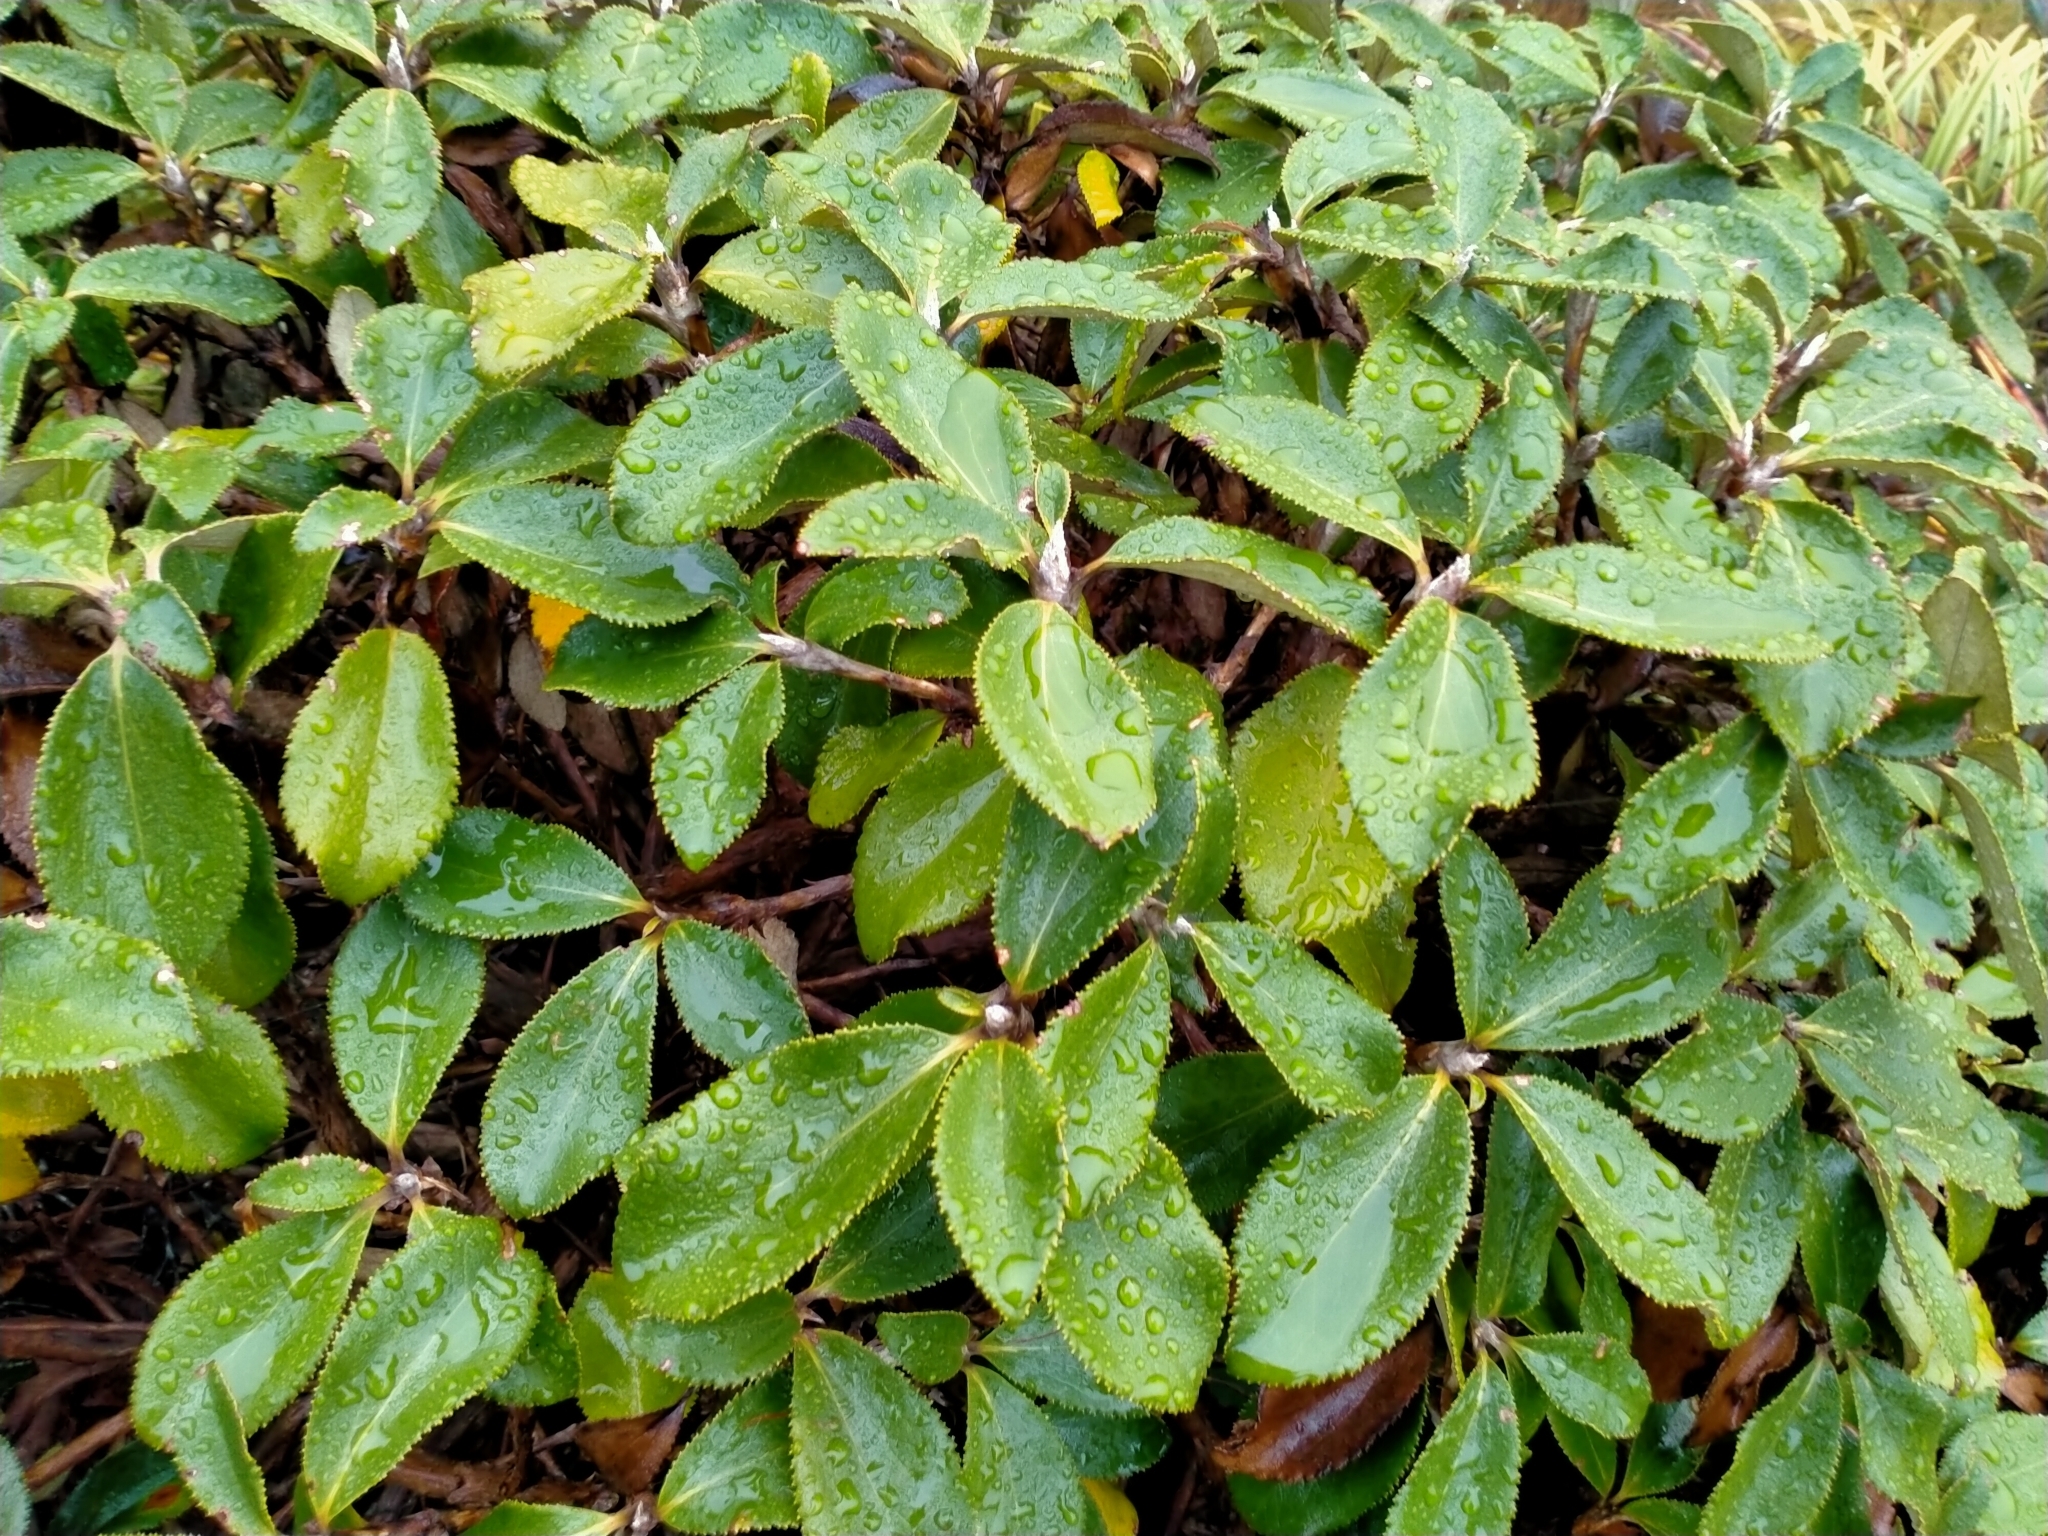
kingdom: Plantae
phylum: Tracheophyta
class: Magnoliopsida
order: Asterales
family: Asteraceae
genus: Macrolearia
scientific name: Macrolearia colensoi
